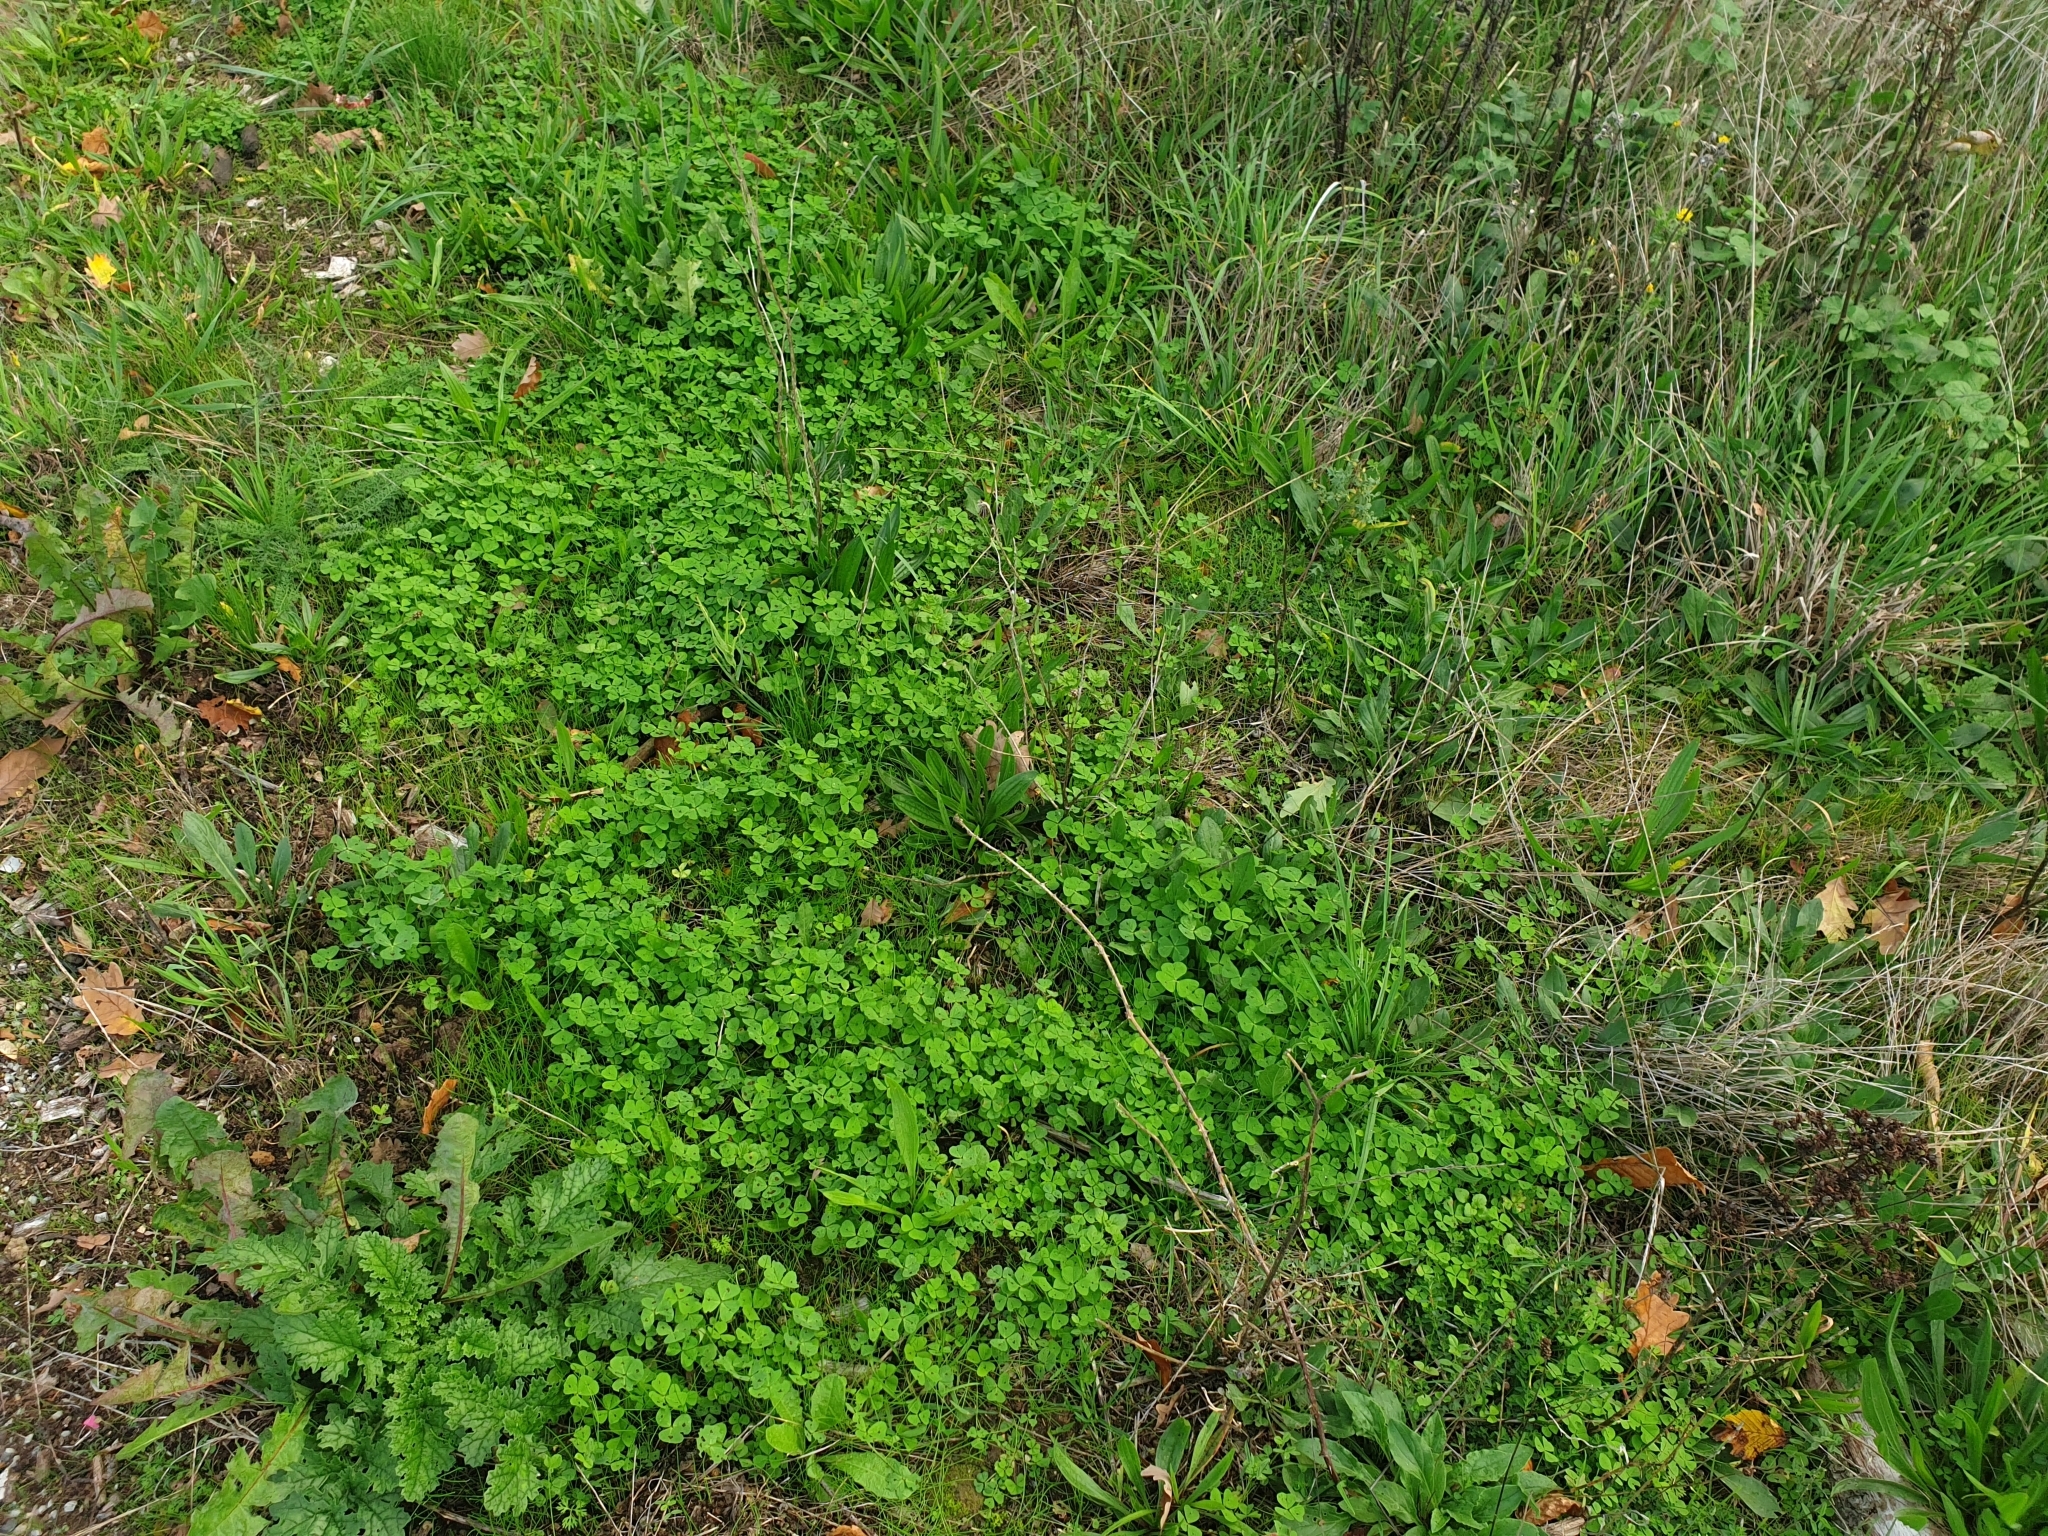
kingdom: Plantae
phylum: Tracheophyta
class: Magnoliopsida
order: Fabales
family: Fabaceae
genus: Medicago
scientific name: Medicago arabica
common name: Spotted medick
